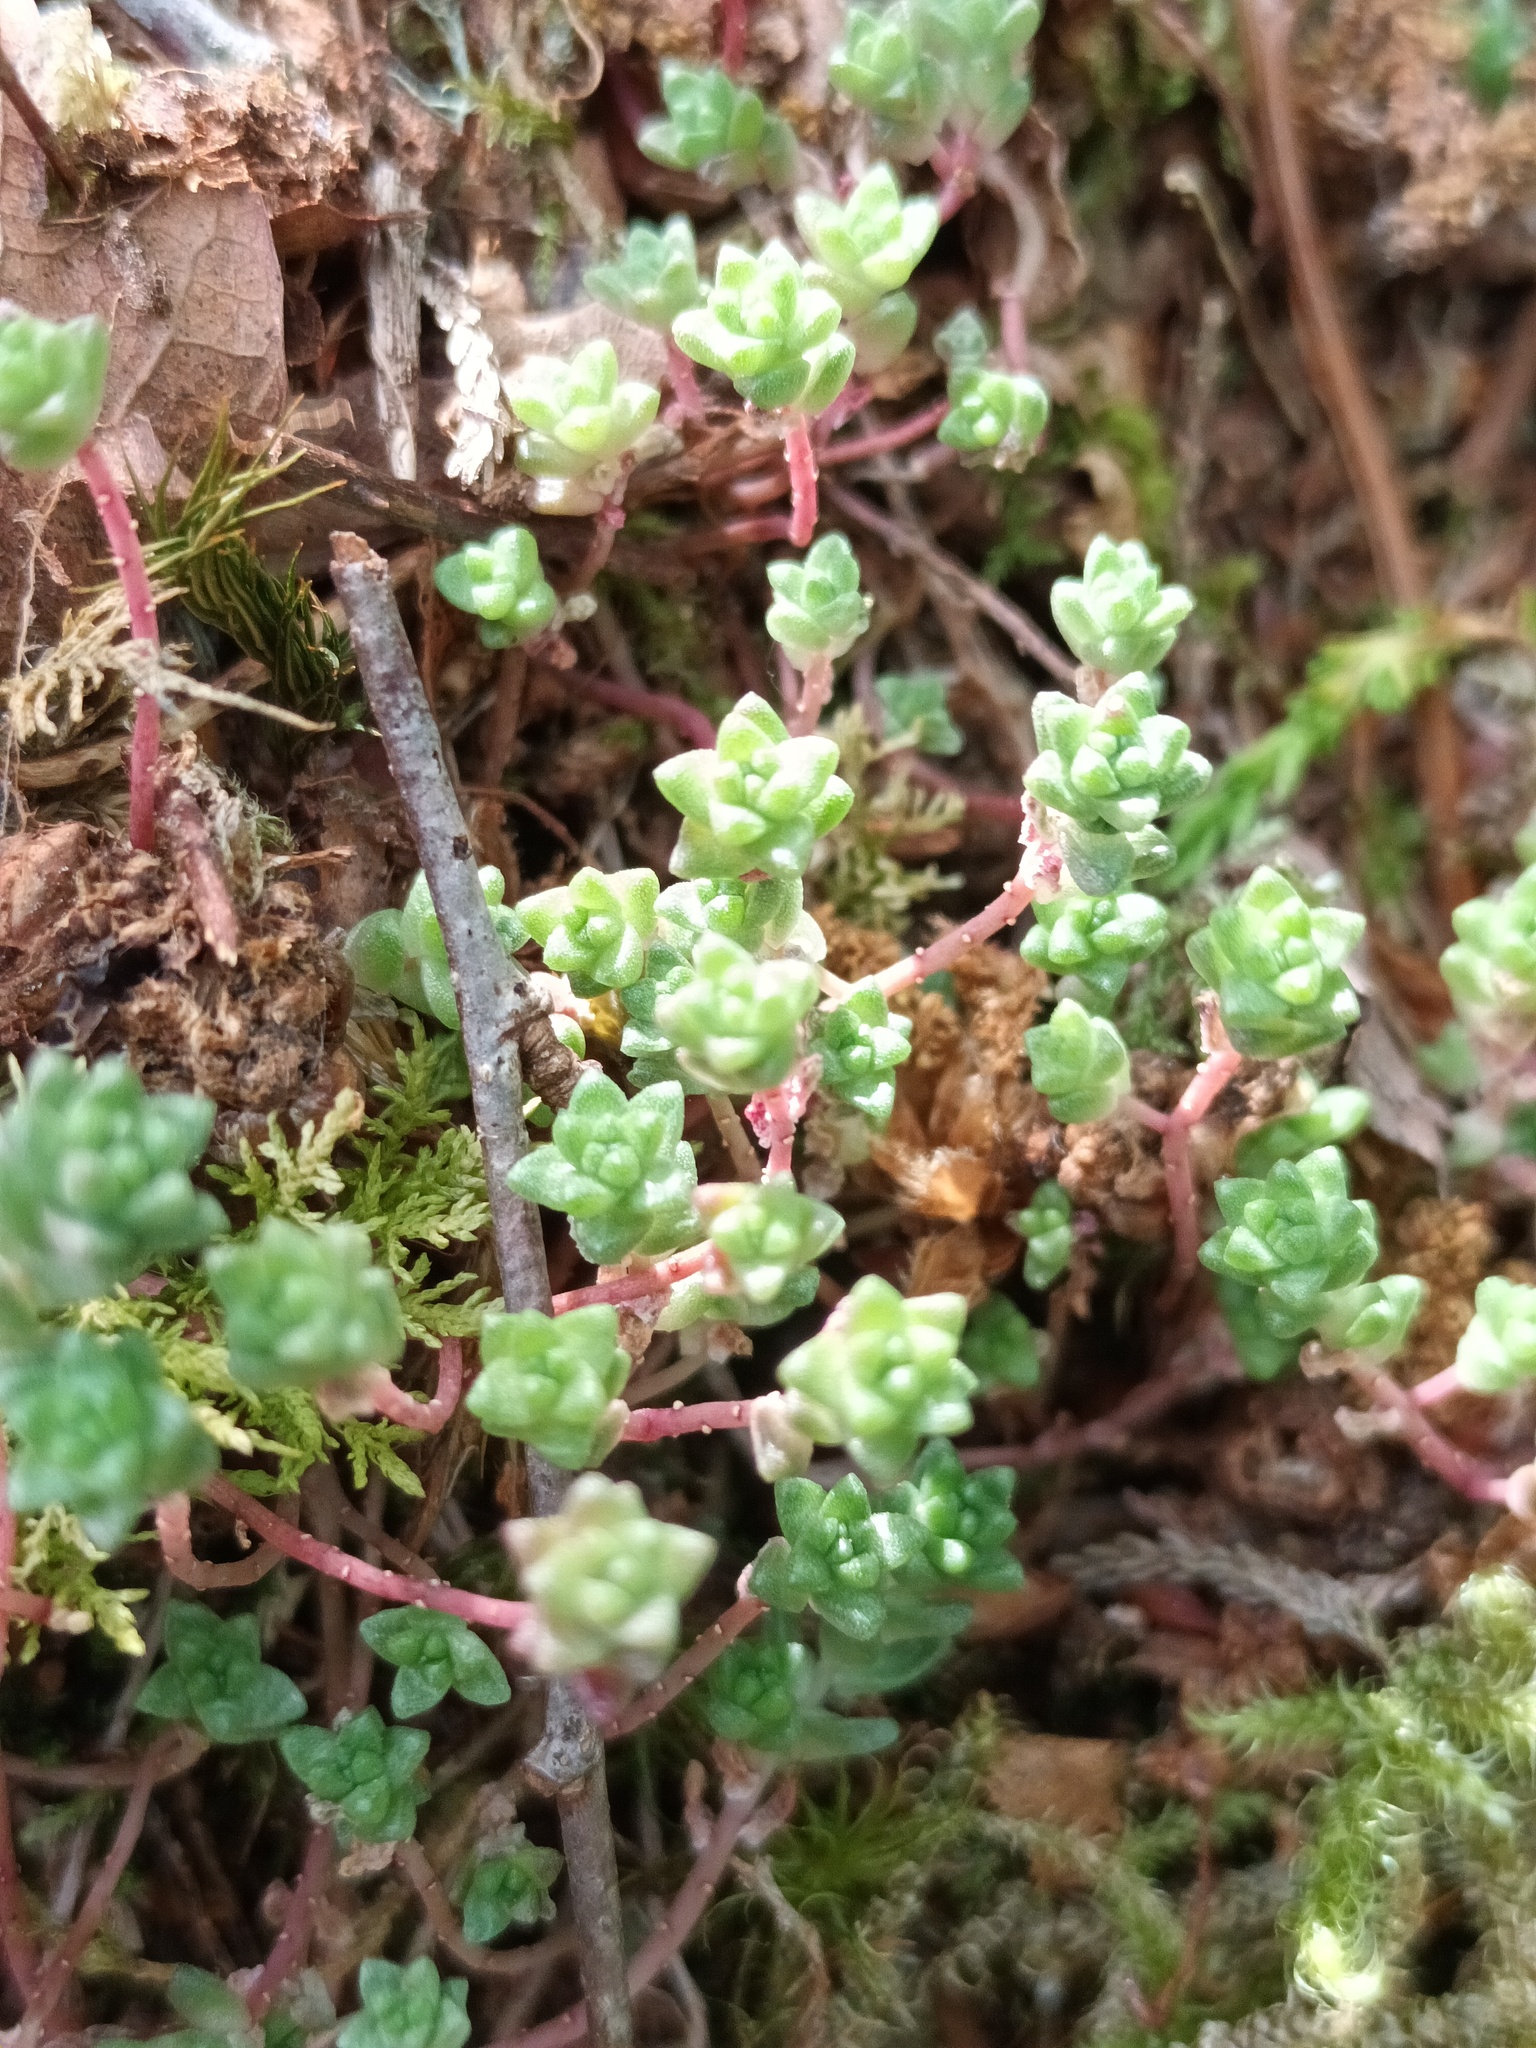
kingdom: Plantae
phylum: Tracheophyta
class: Magnoliopsida
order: Saxifragales
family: Crassulaceae
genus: Sedum
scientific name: Sedum anglicum
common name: English stonecrop
